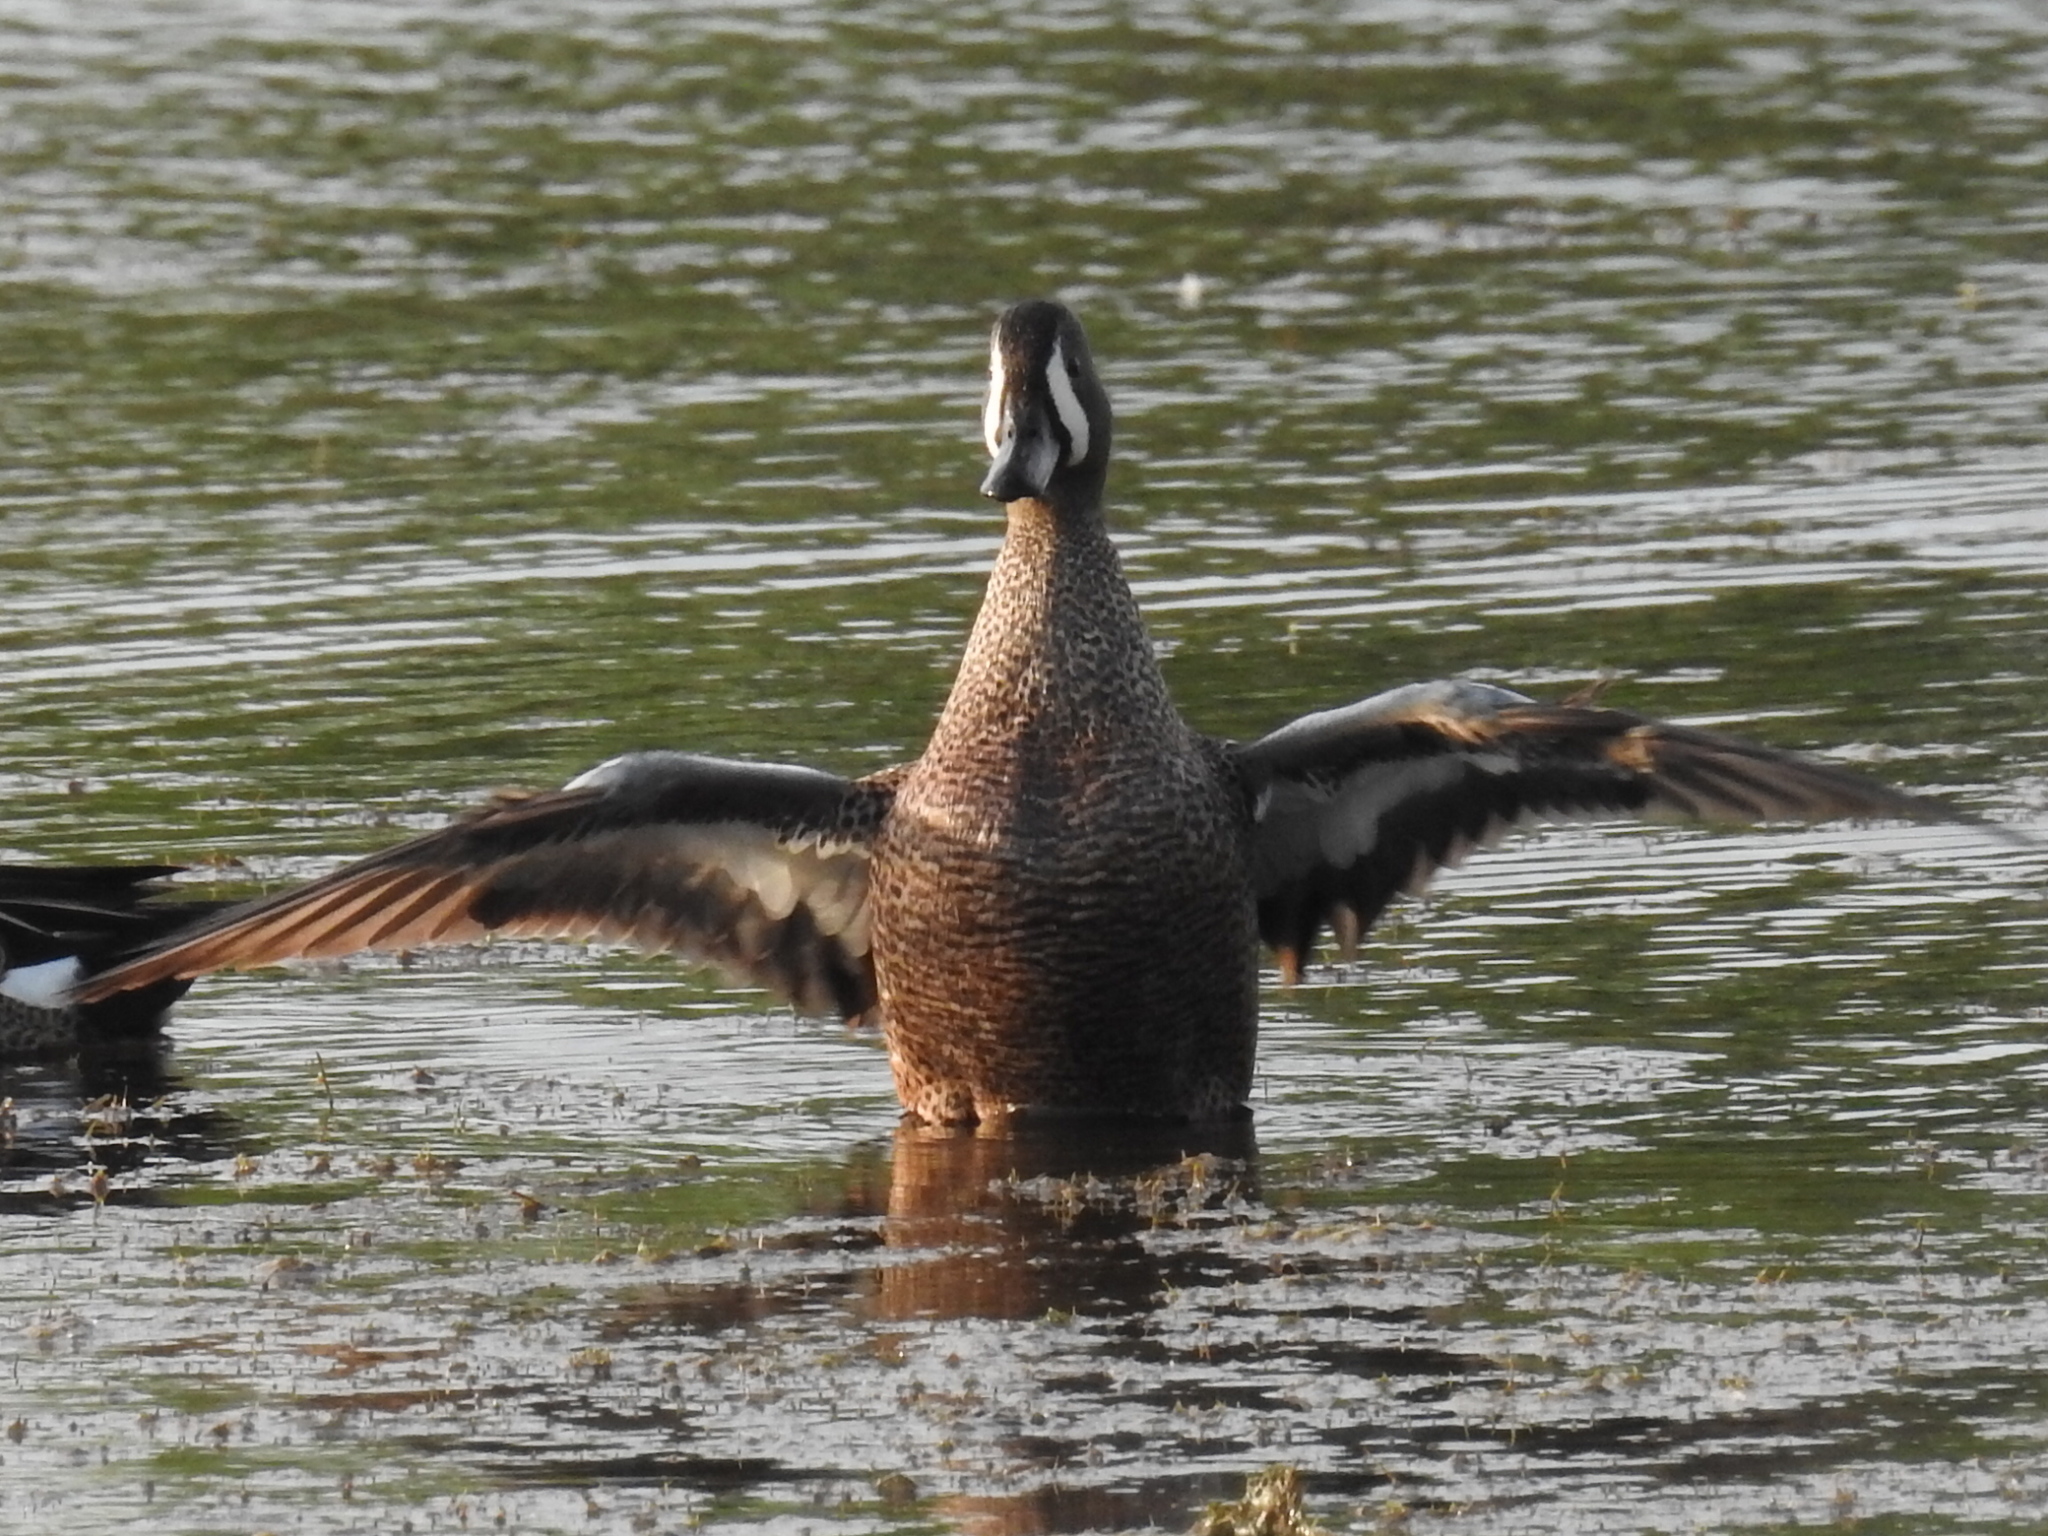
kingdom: Animalia
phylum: Chordata
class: Aves
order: Anseriformes
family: Anatidae
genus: Spatula
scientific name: Spatula discors
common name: Blue-winged teal
